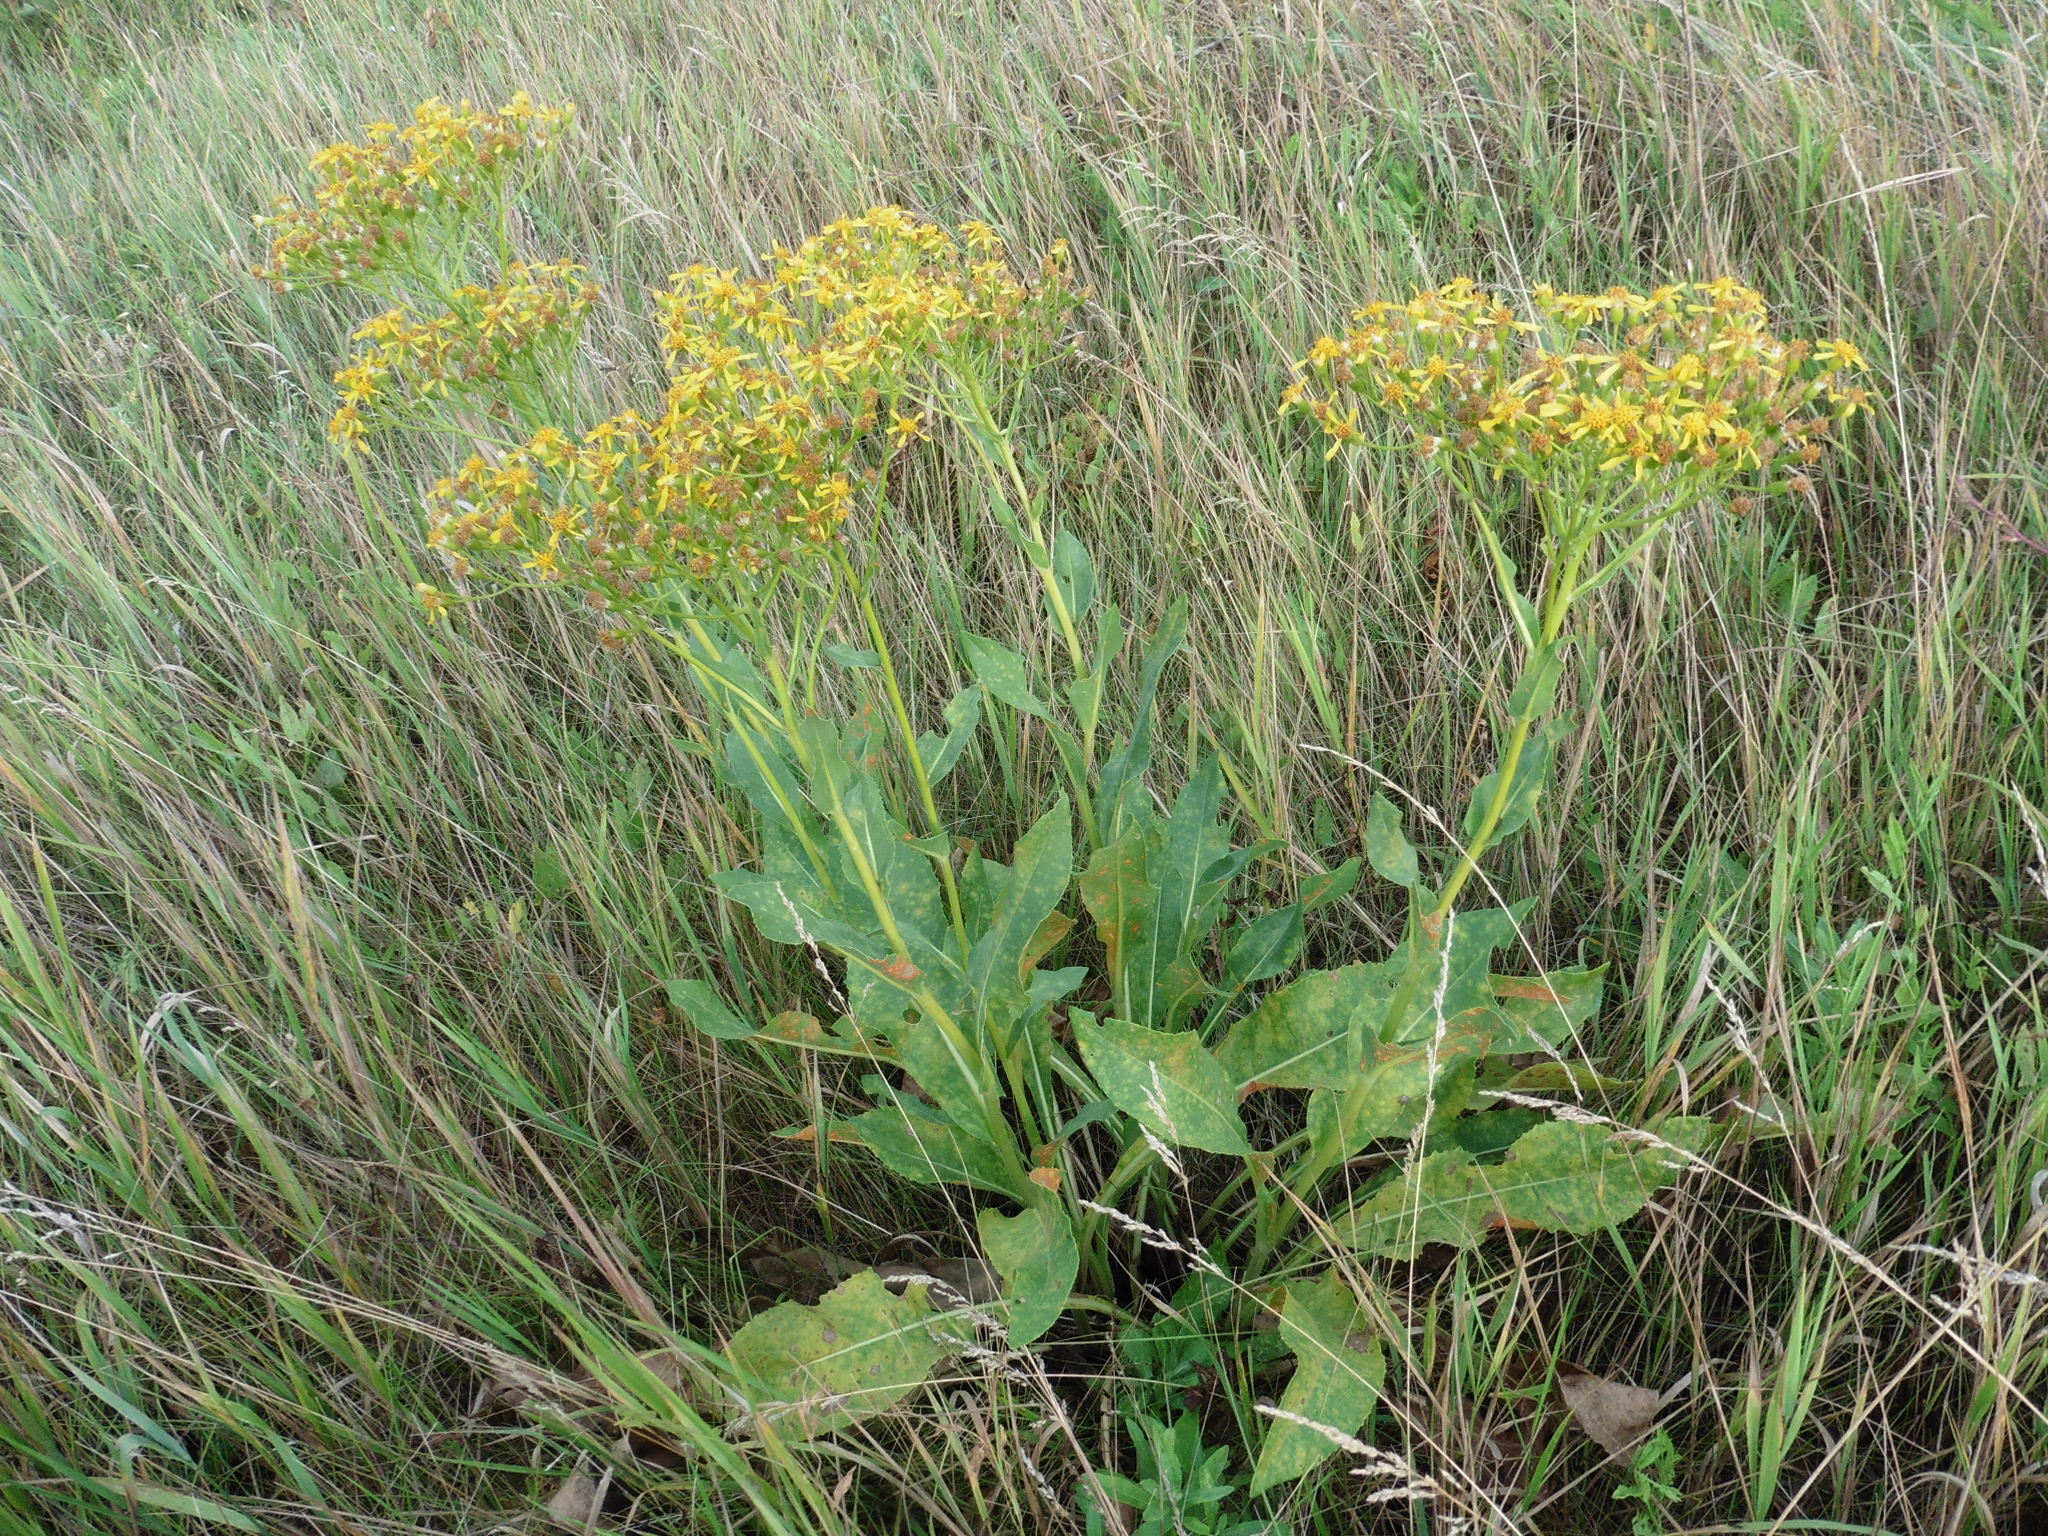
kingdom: Plantae
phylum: Tracheophyta
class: Magnoliopsida
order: Asterales
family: Asteraceae
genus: Senecio
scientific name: Senecio doria
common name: Golden ragwort
